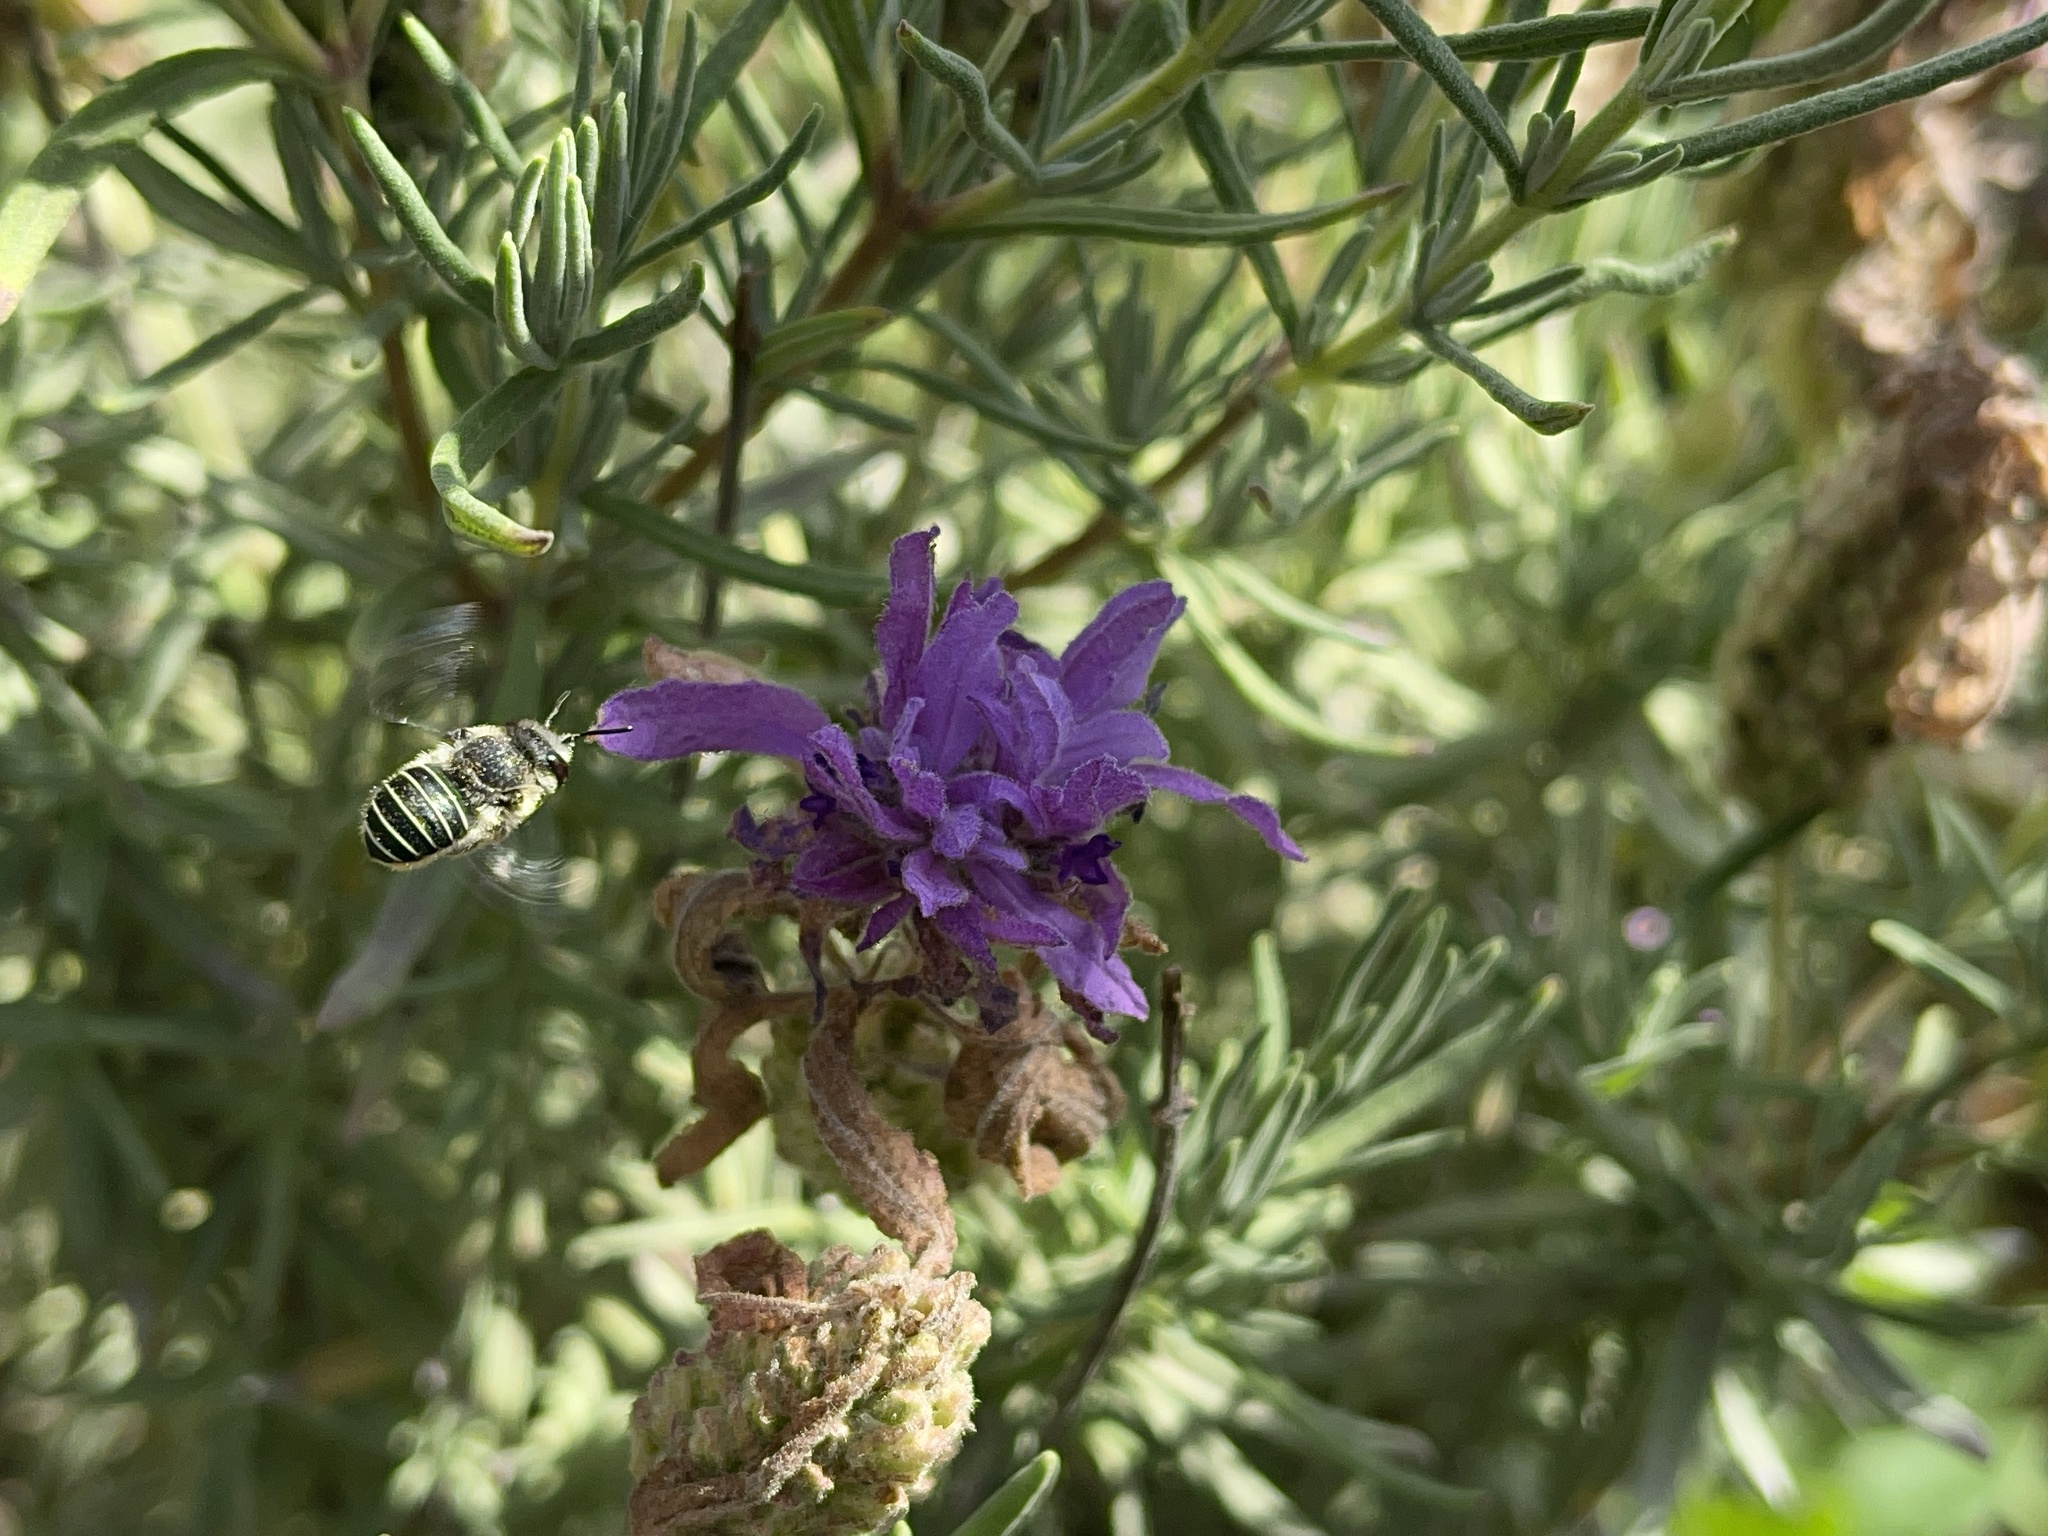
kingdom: Animalia
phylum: Arthropoda
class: Insecta
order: Hymenoptera
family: Megachilidae
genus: Pseudoanthidium
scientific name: Pseudoanthidium repetitum
